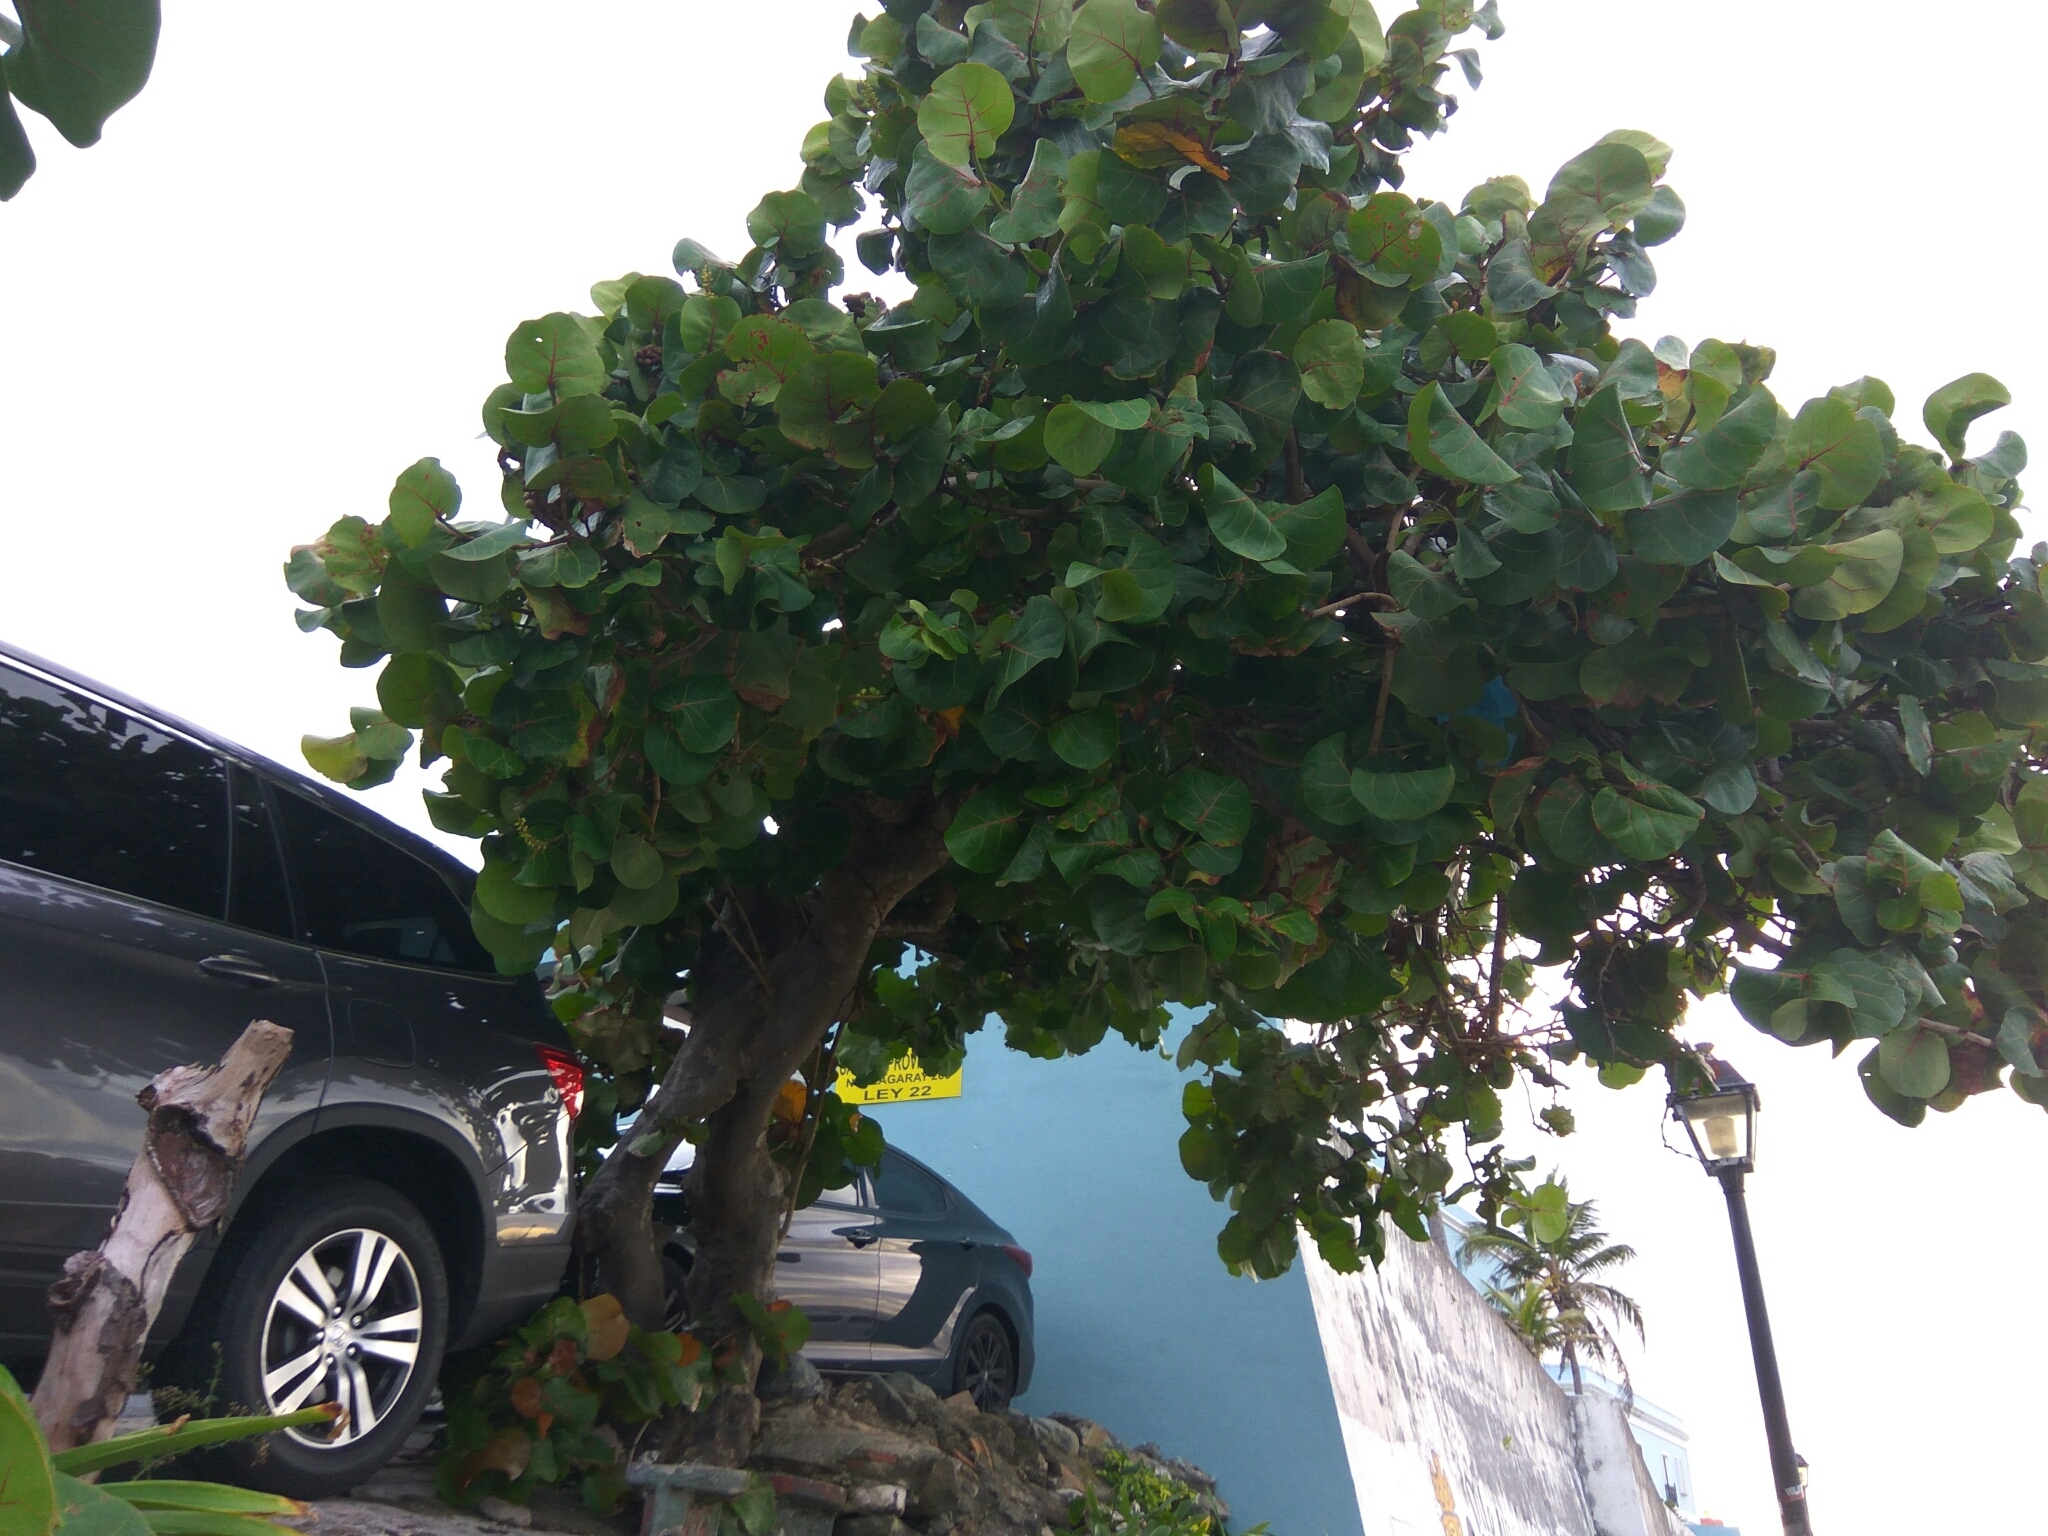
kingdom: Plantae
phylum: Tracheophyta
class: Magnoliopsida
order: Caryophyllales
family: Polygonaceae
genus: Coccoloba
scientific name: Coccoloba uvifera
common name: Seagrape
